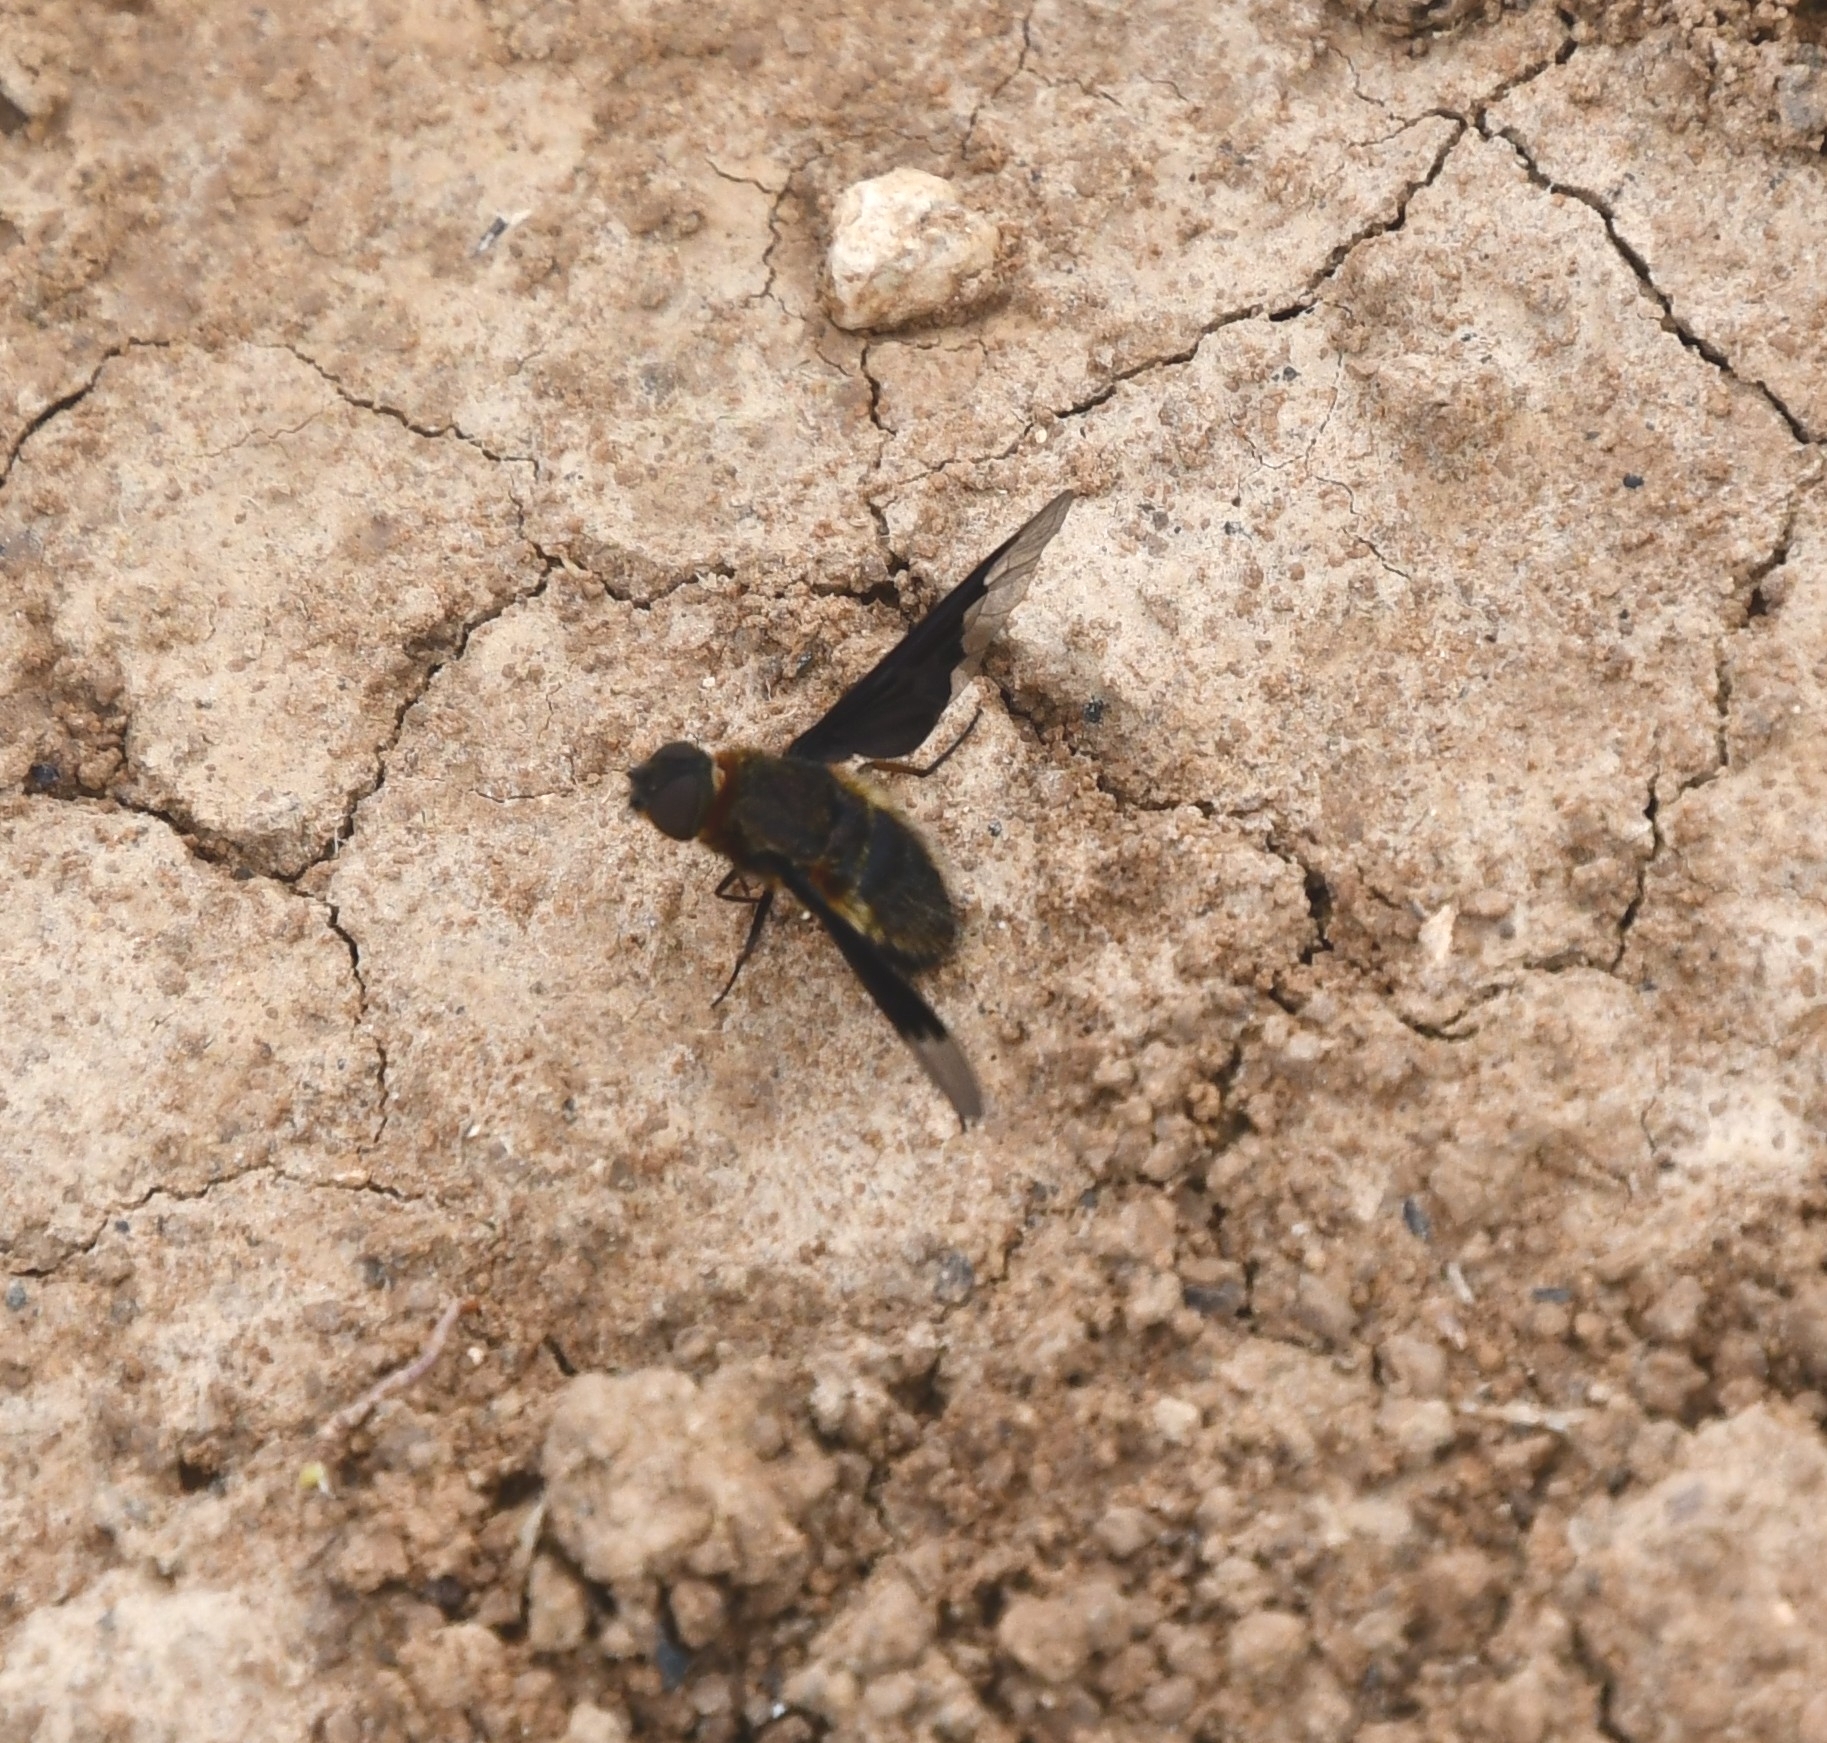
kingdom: Animalia
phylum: Arthropoda
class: Insecta
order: Diptera
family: Bombyliidae
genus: Hemipenthes
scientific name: Hemipenthes morio
